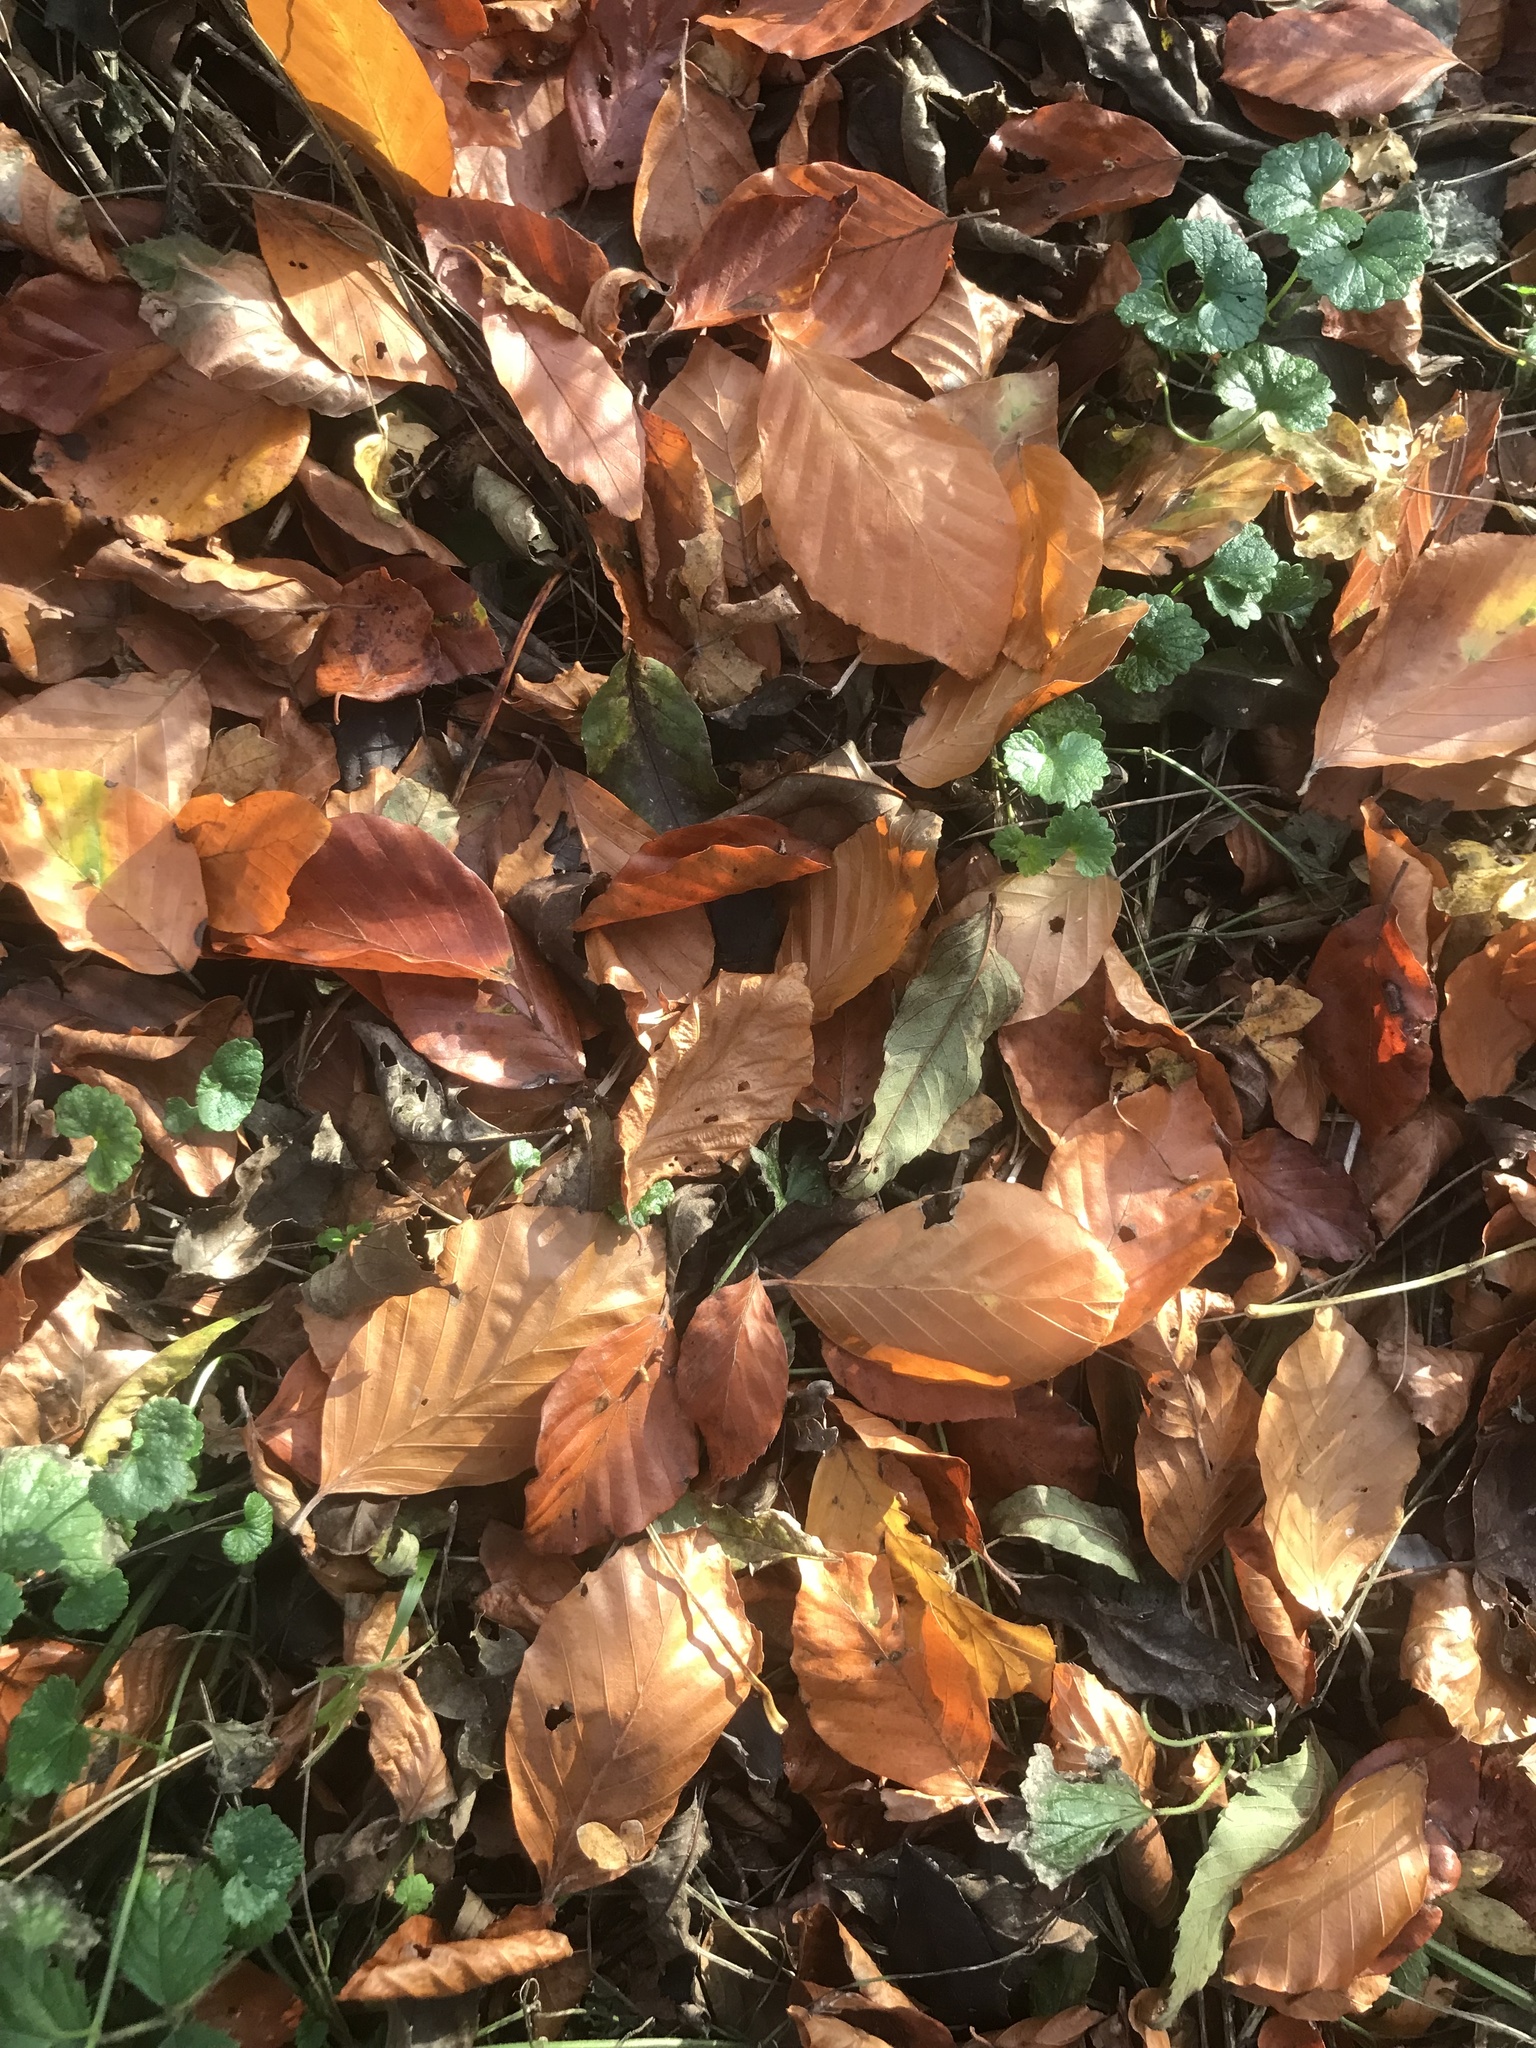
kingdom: Plantae
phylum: Tracheophyta
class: Magnoliopsida
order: Fagales
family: Fagaceae
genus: Fagus
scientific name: Fagus sylvatica
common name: Beech
